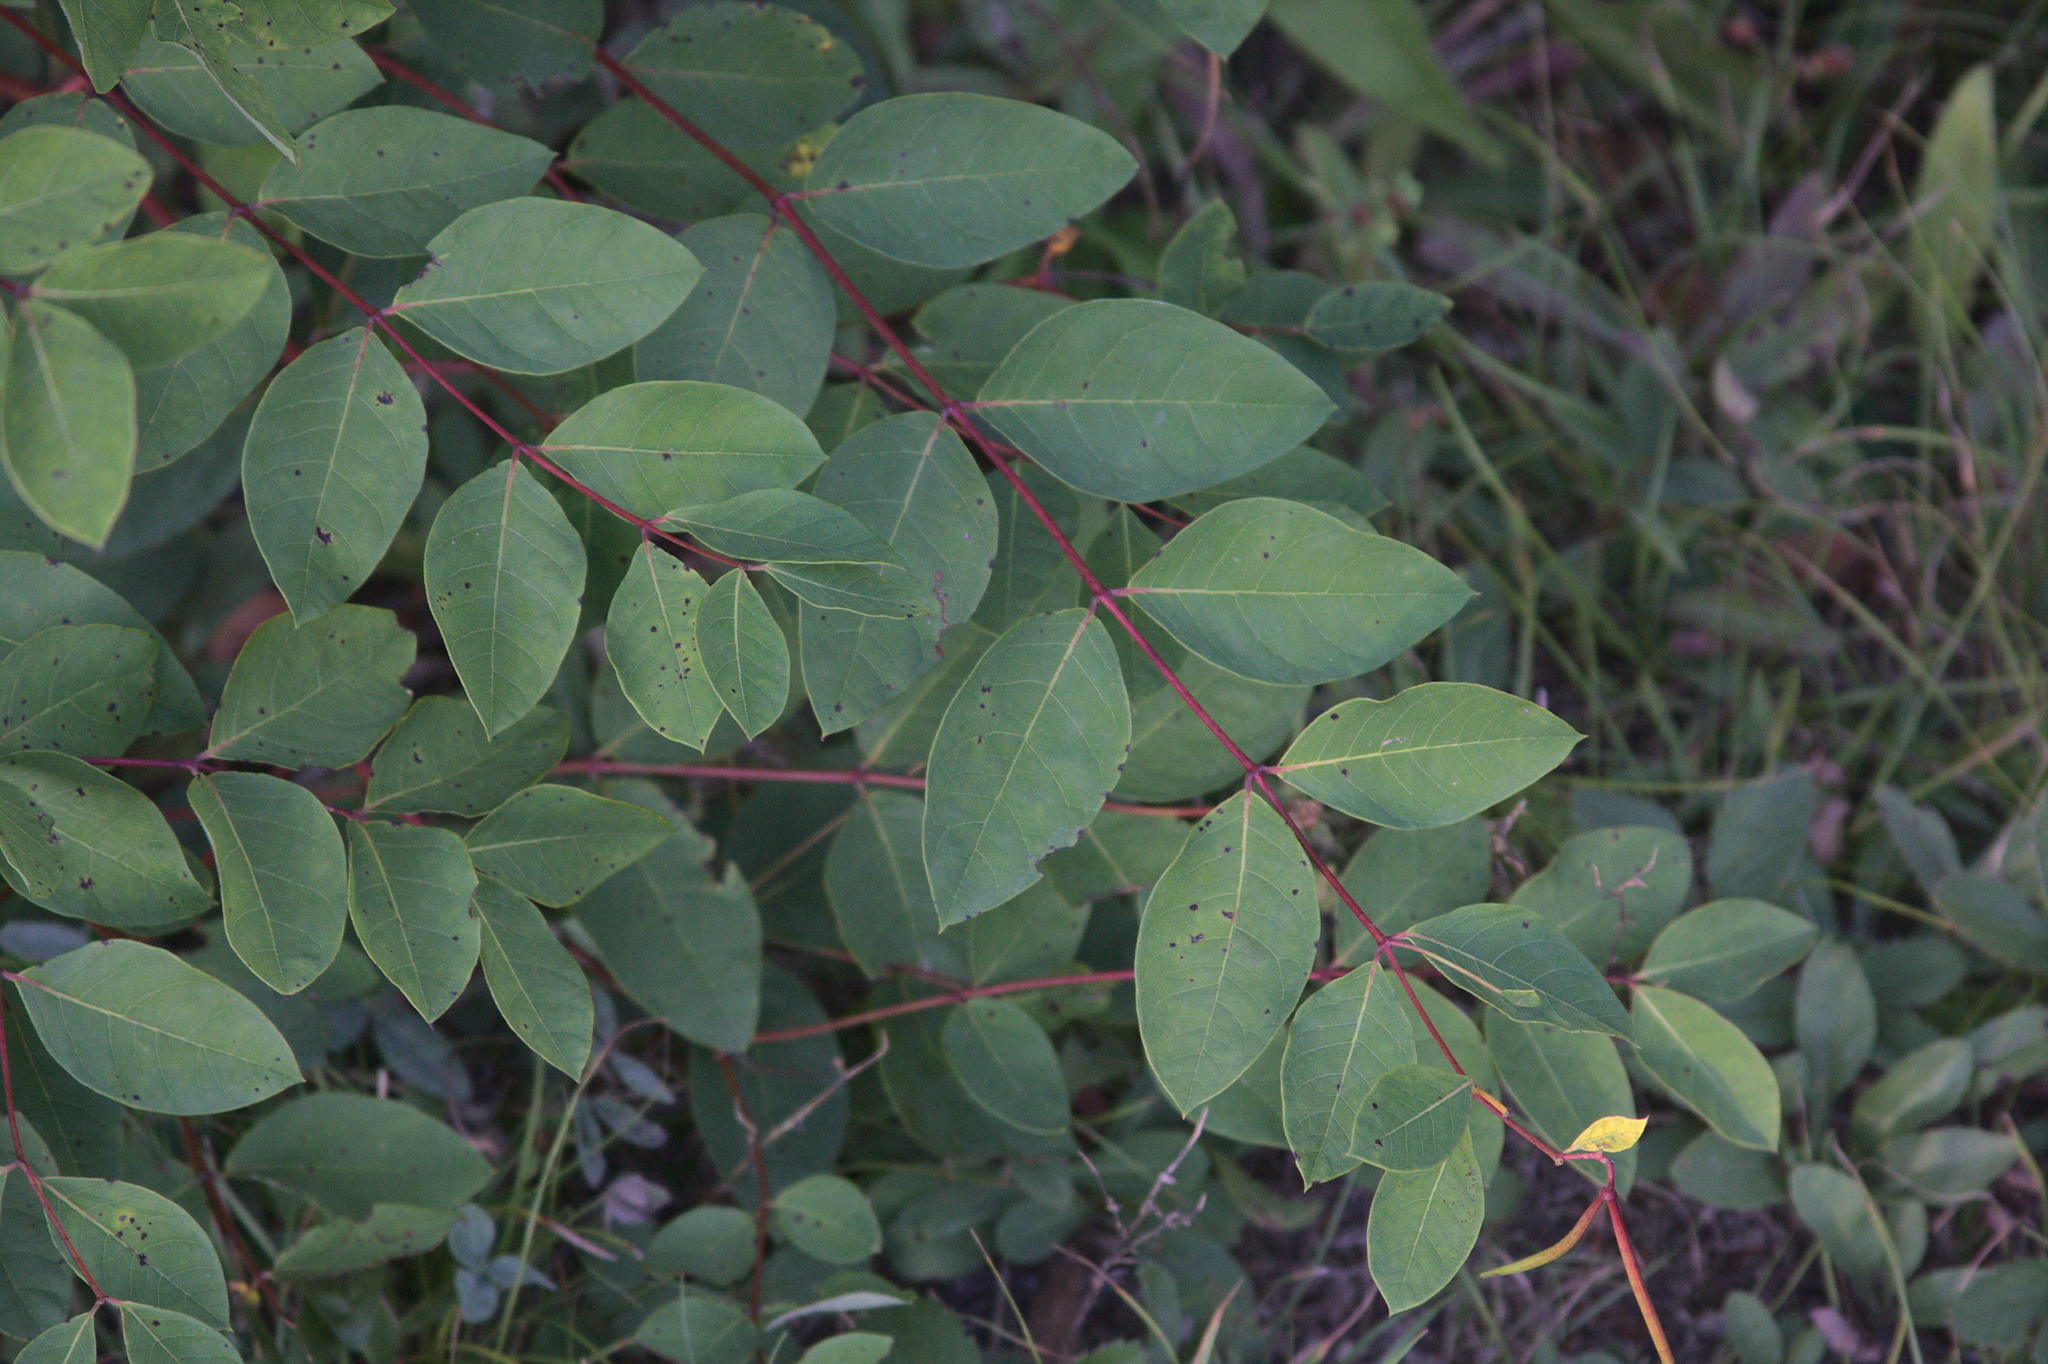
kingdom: Plantae
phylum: Tracheophyta
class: Magnoliopsida
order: Gentianales
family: Apocynaceae
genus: Apocynum
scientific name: Apocynum androsaemifolium
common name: Spreading dogbane
